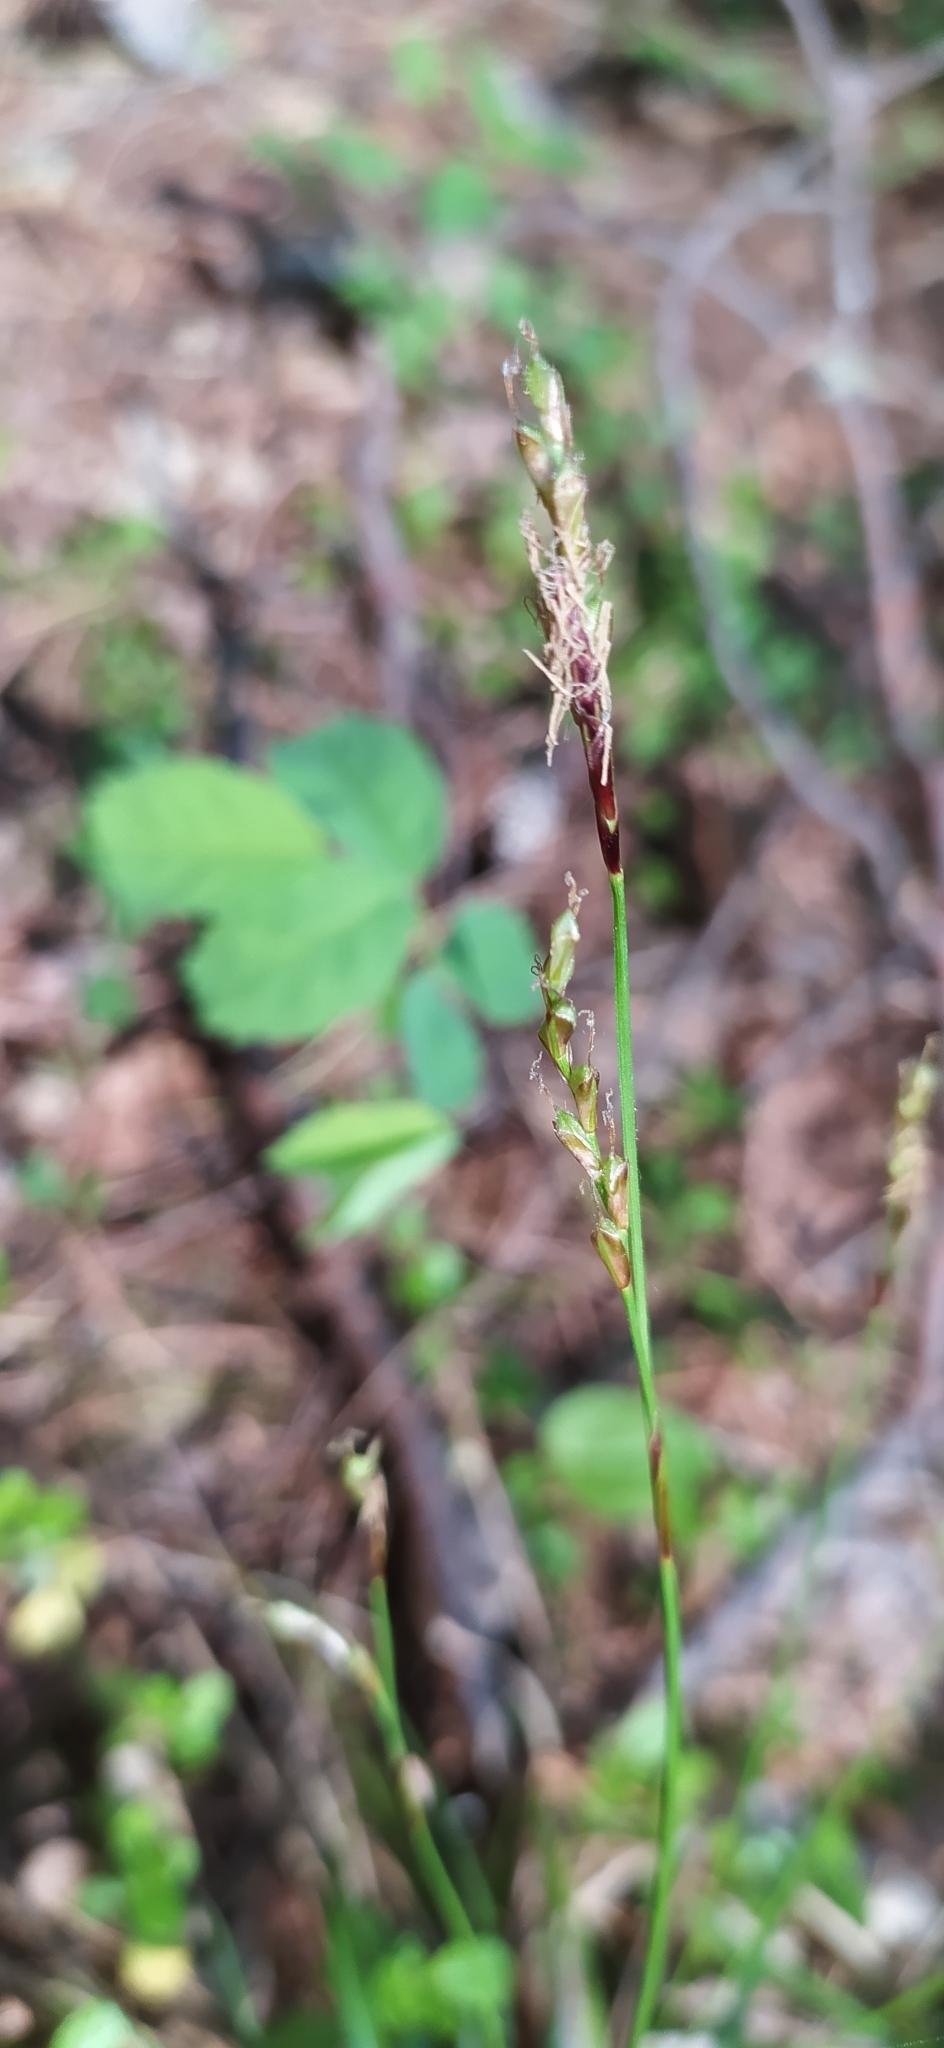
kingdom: Plantae
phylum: Tracheophyta
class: Liliopsida
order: Poales
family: Cyperaceae
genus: Carex
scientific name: Carex digitata
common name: Fingered sedge
